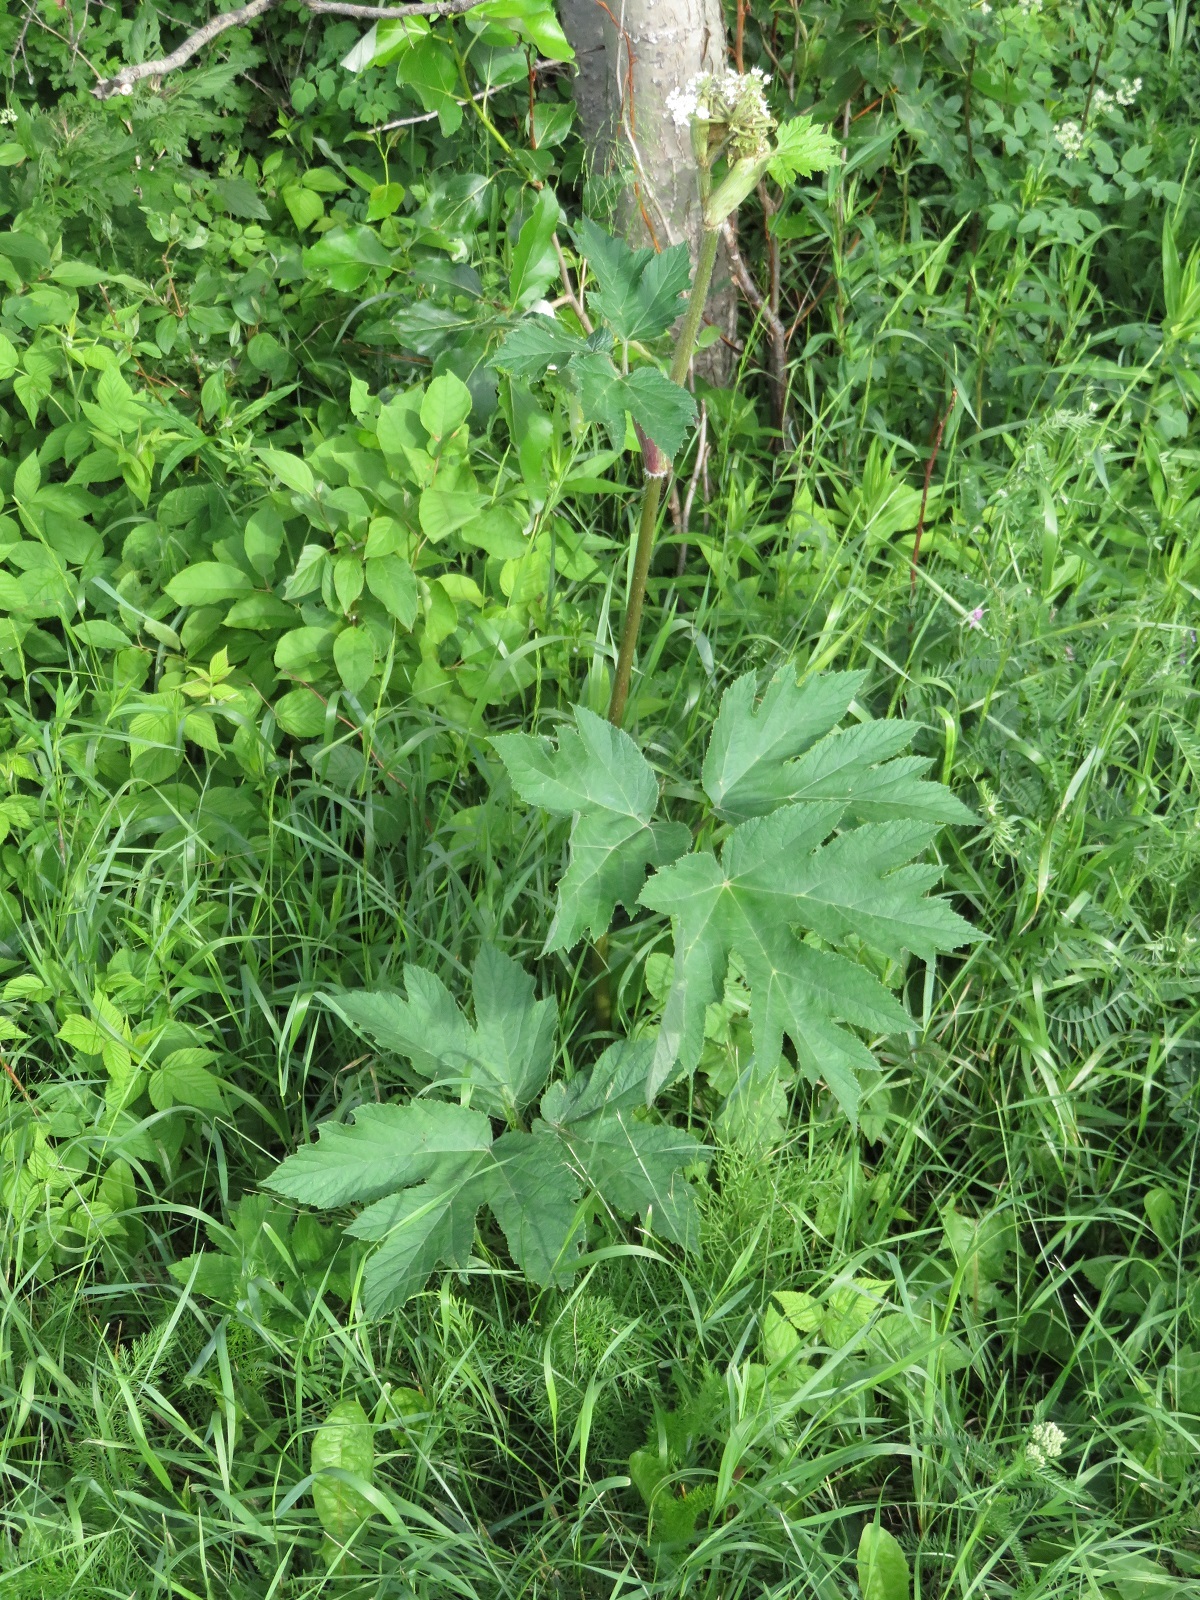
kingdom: Plantae
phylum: Tracheophyta
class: Magnoliopsida
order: Apiales
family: Apiaceae
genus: Heracleum
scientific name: Heracleum maximum
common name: American cow parsnip
